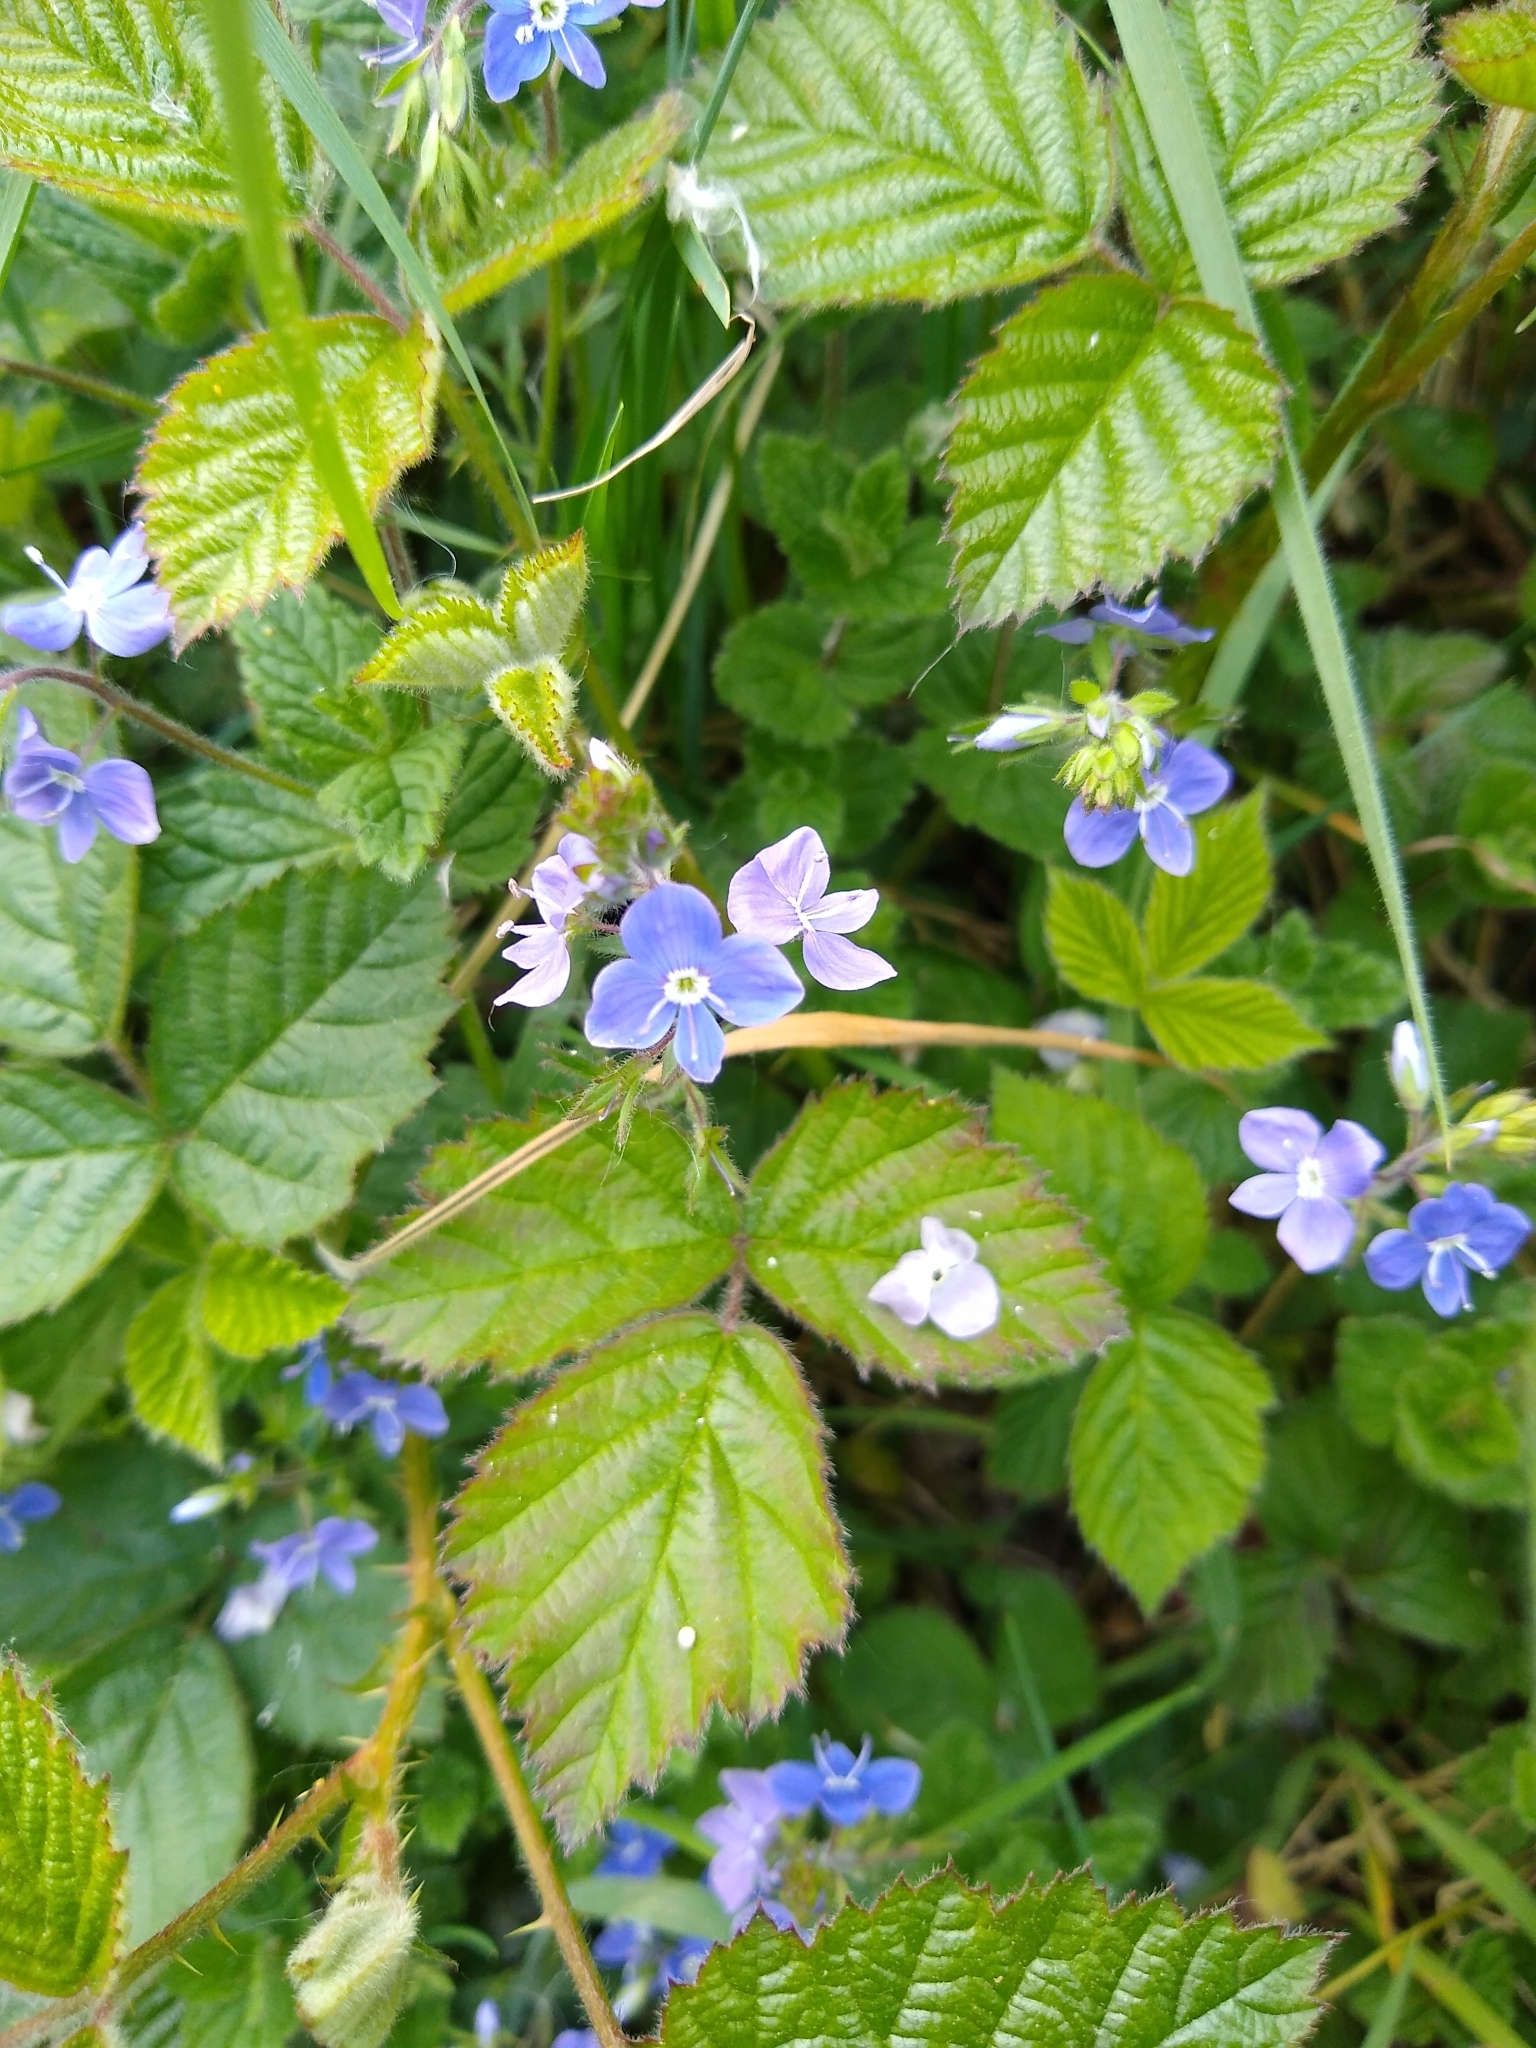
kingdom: Plantae
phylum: Tracheophyta
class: Magnoliopsida
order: Lamiales
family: Plantaginaceae
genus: Veronica
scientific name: Veronica chamaedrys
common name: Germander speedwell
